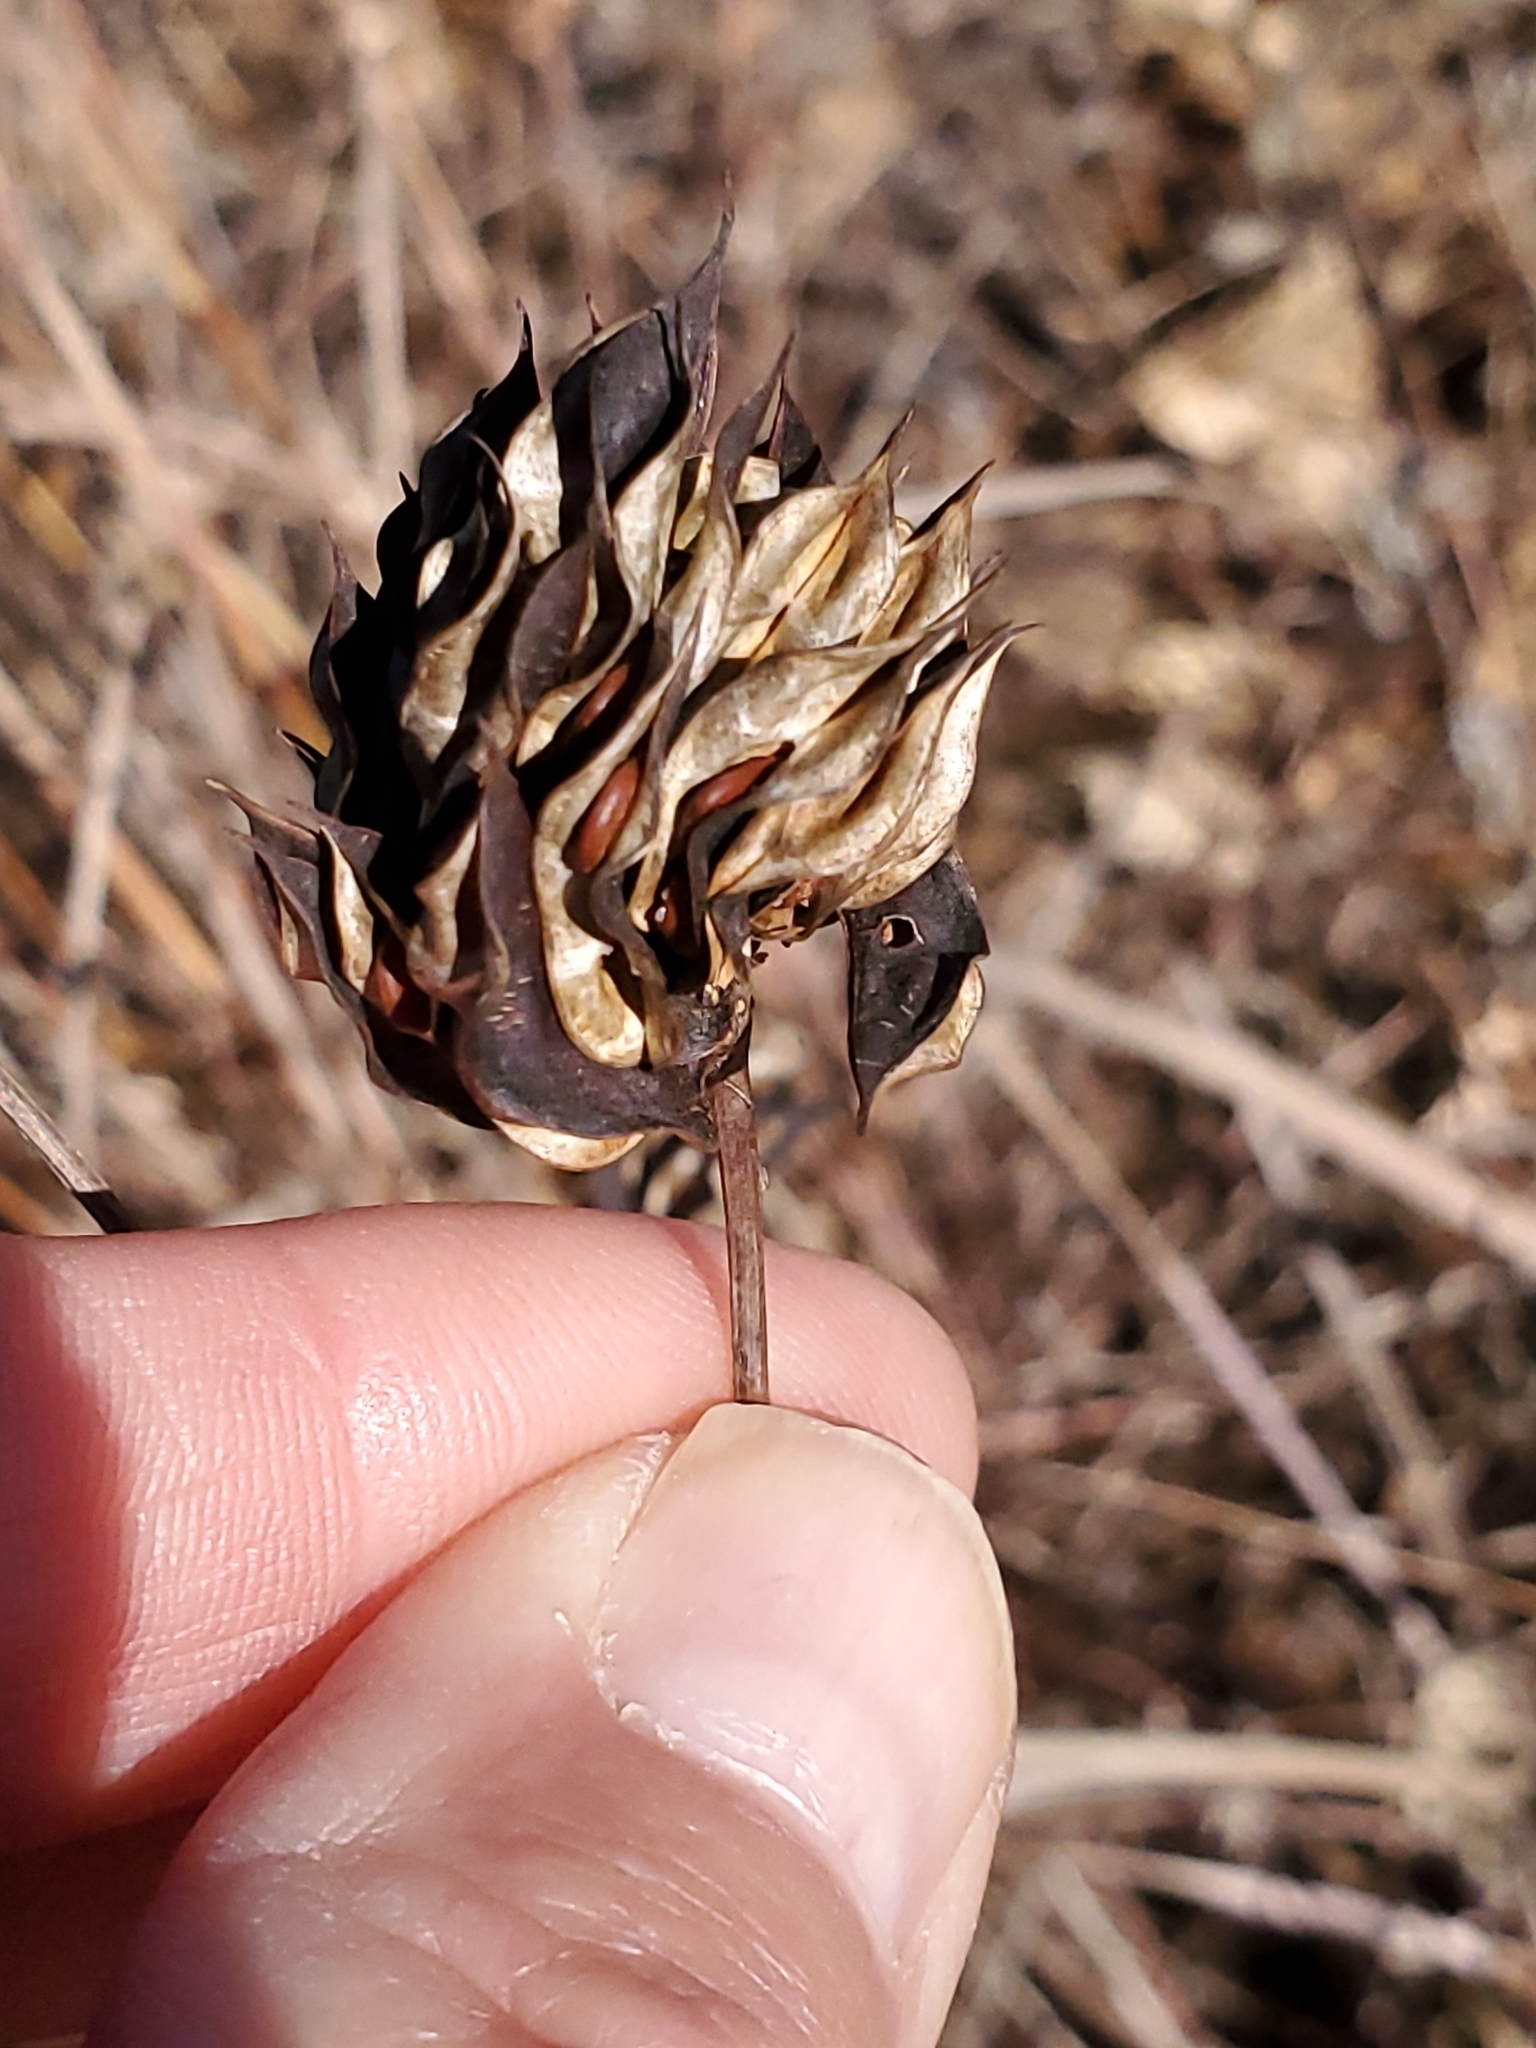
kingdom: Plantae
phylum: Tracheophyta
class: Magnoliopsida
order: Fabales
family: Fabaceae
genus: Desmanthus
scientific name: Desmanthus illinoensis
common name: Illinois bundle-flower
